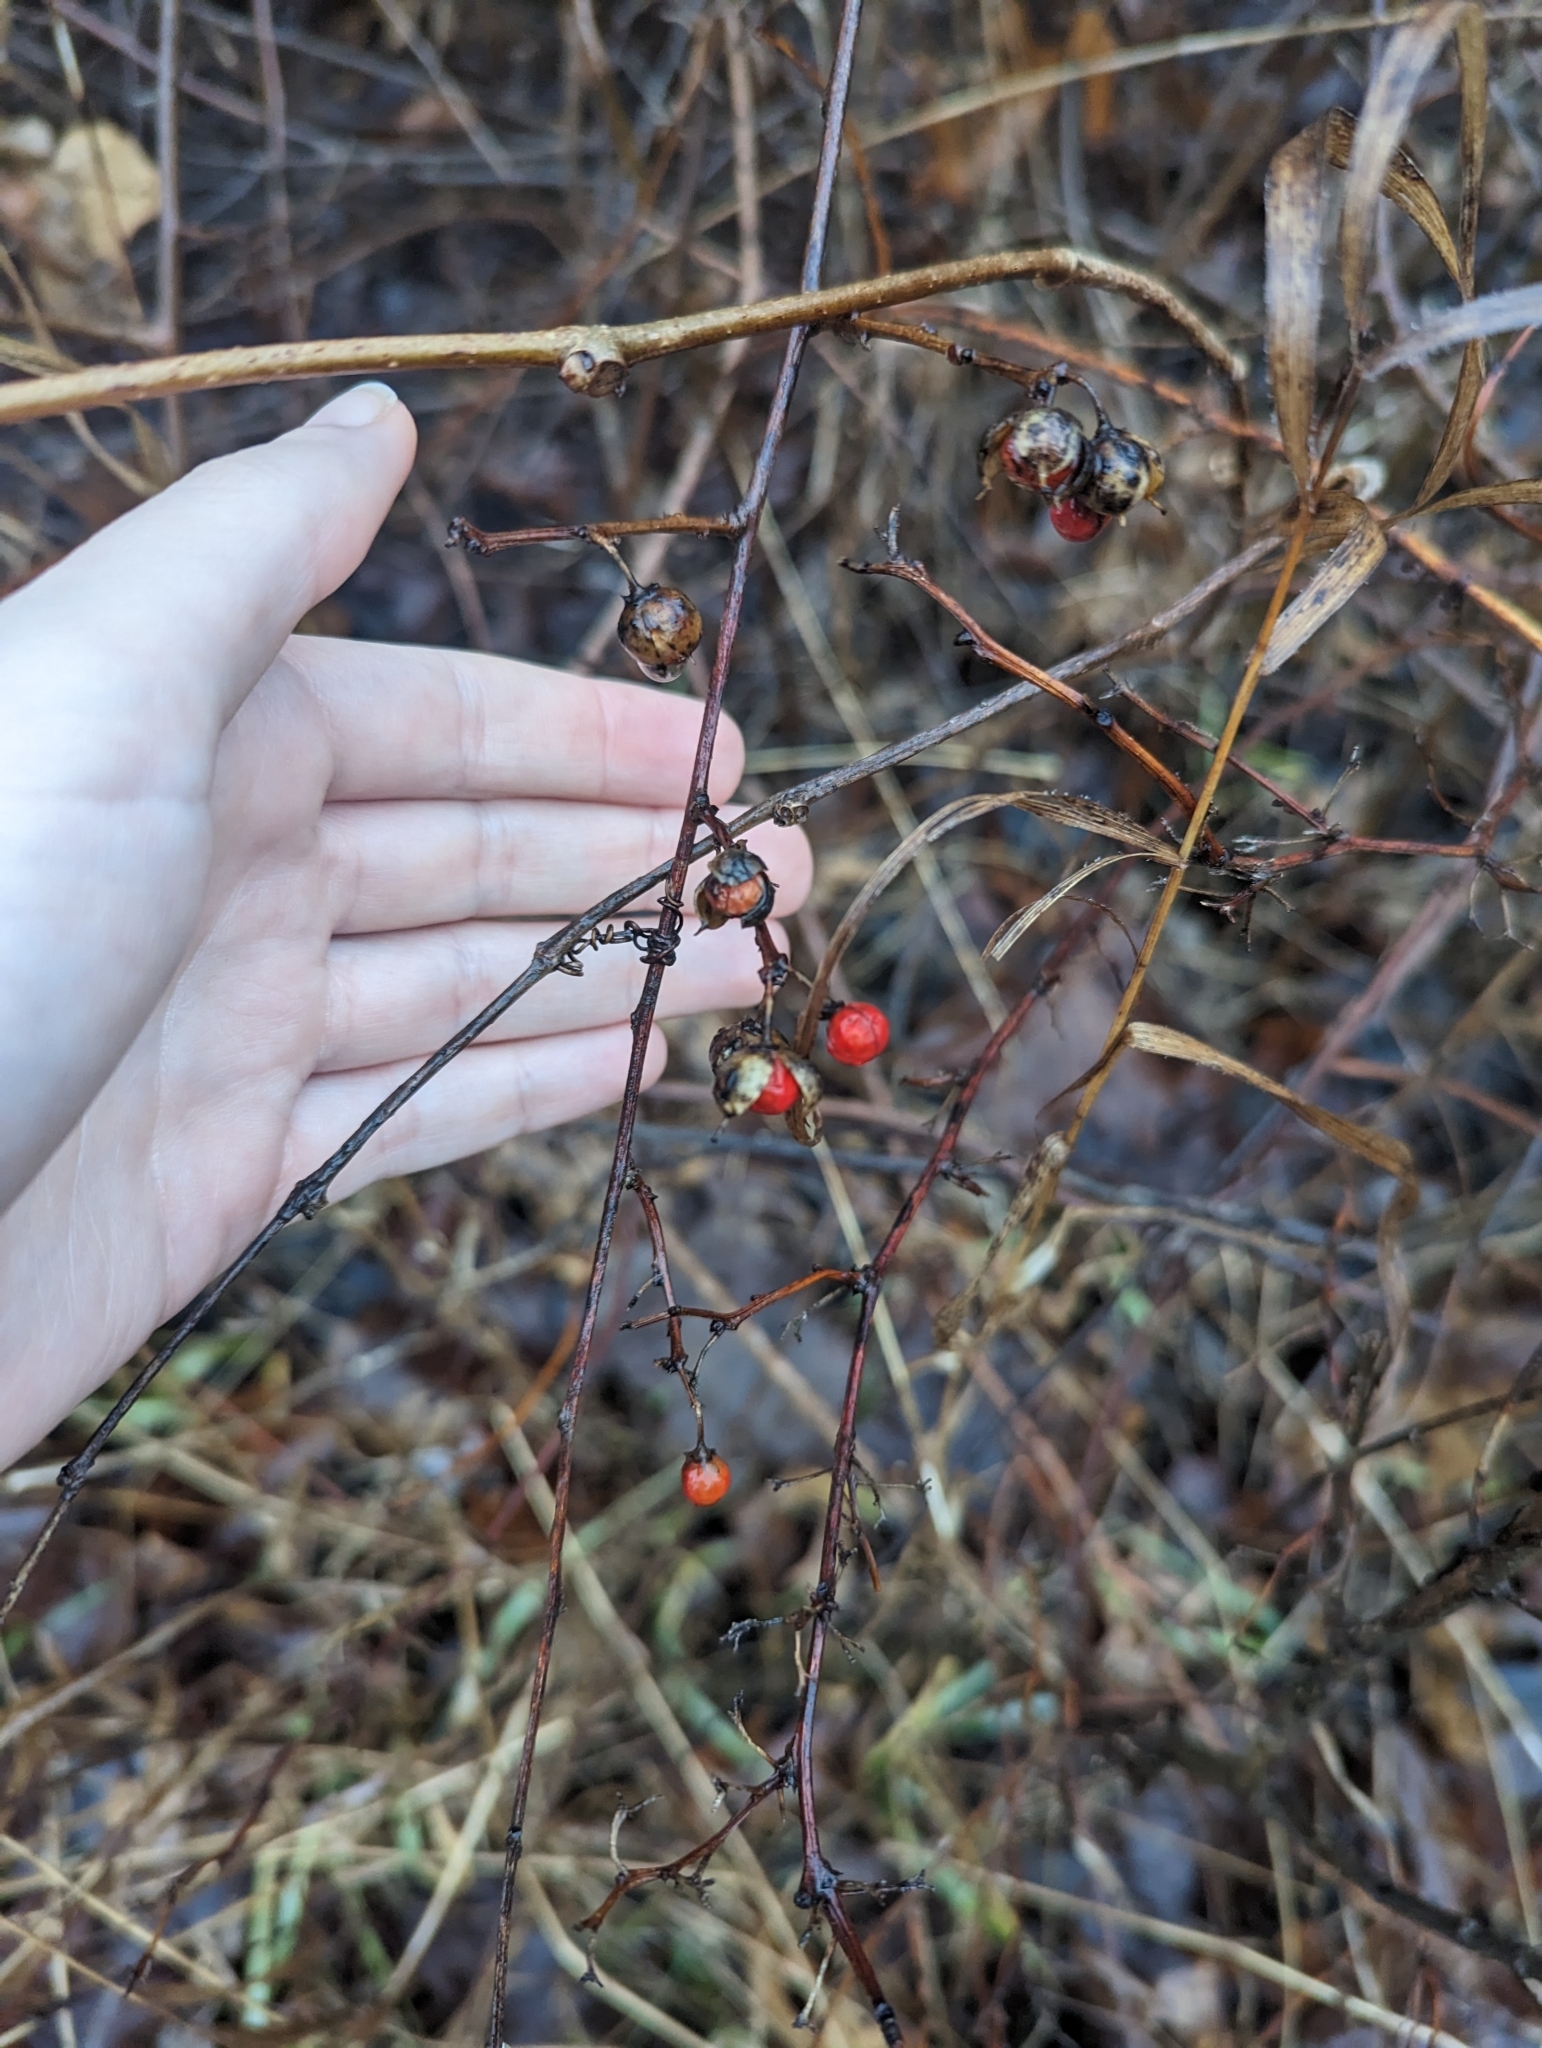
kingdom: Plantae
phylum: Tracheophyta
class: Magnoliopsida
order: Celastrales
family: Celastraceae
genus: Celastrus
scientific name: Celastrus orbiculatus
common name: Oriental bittersweet
